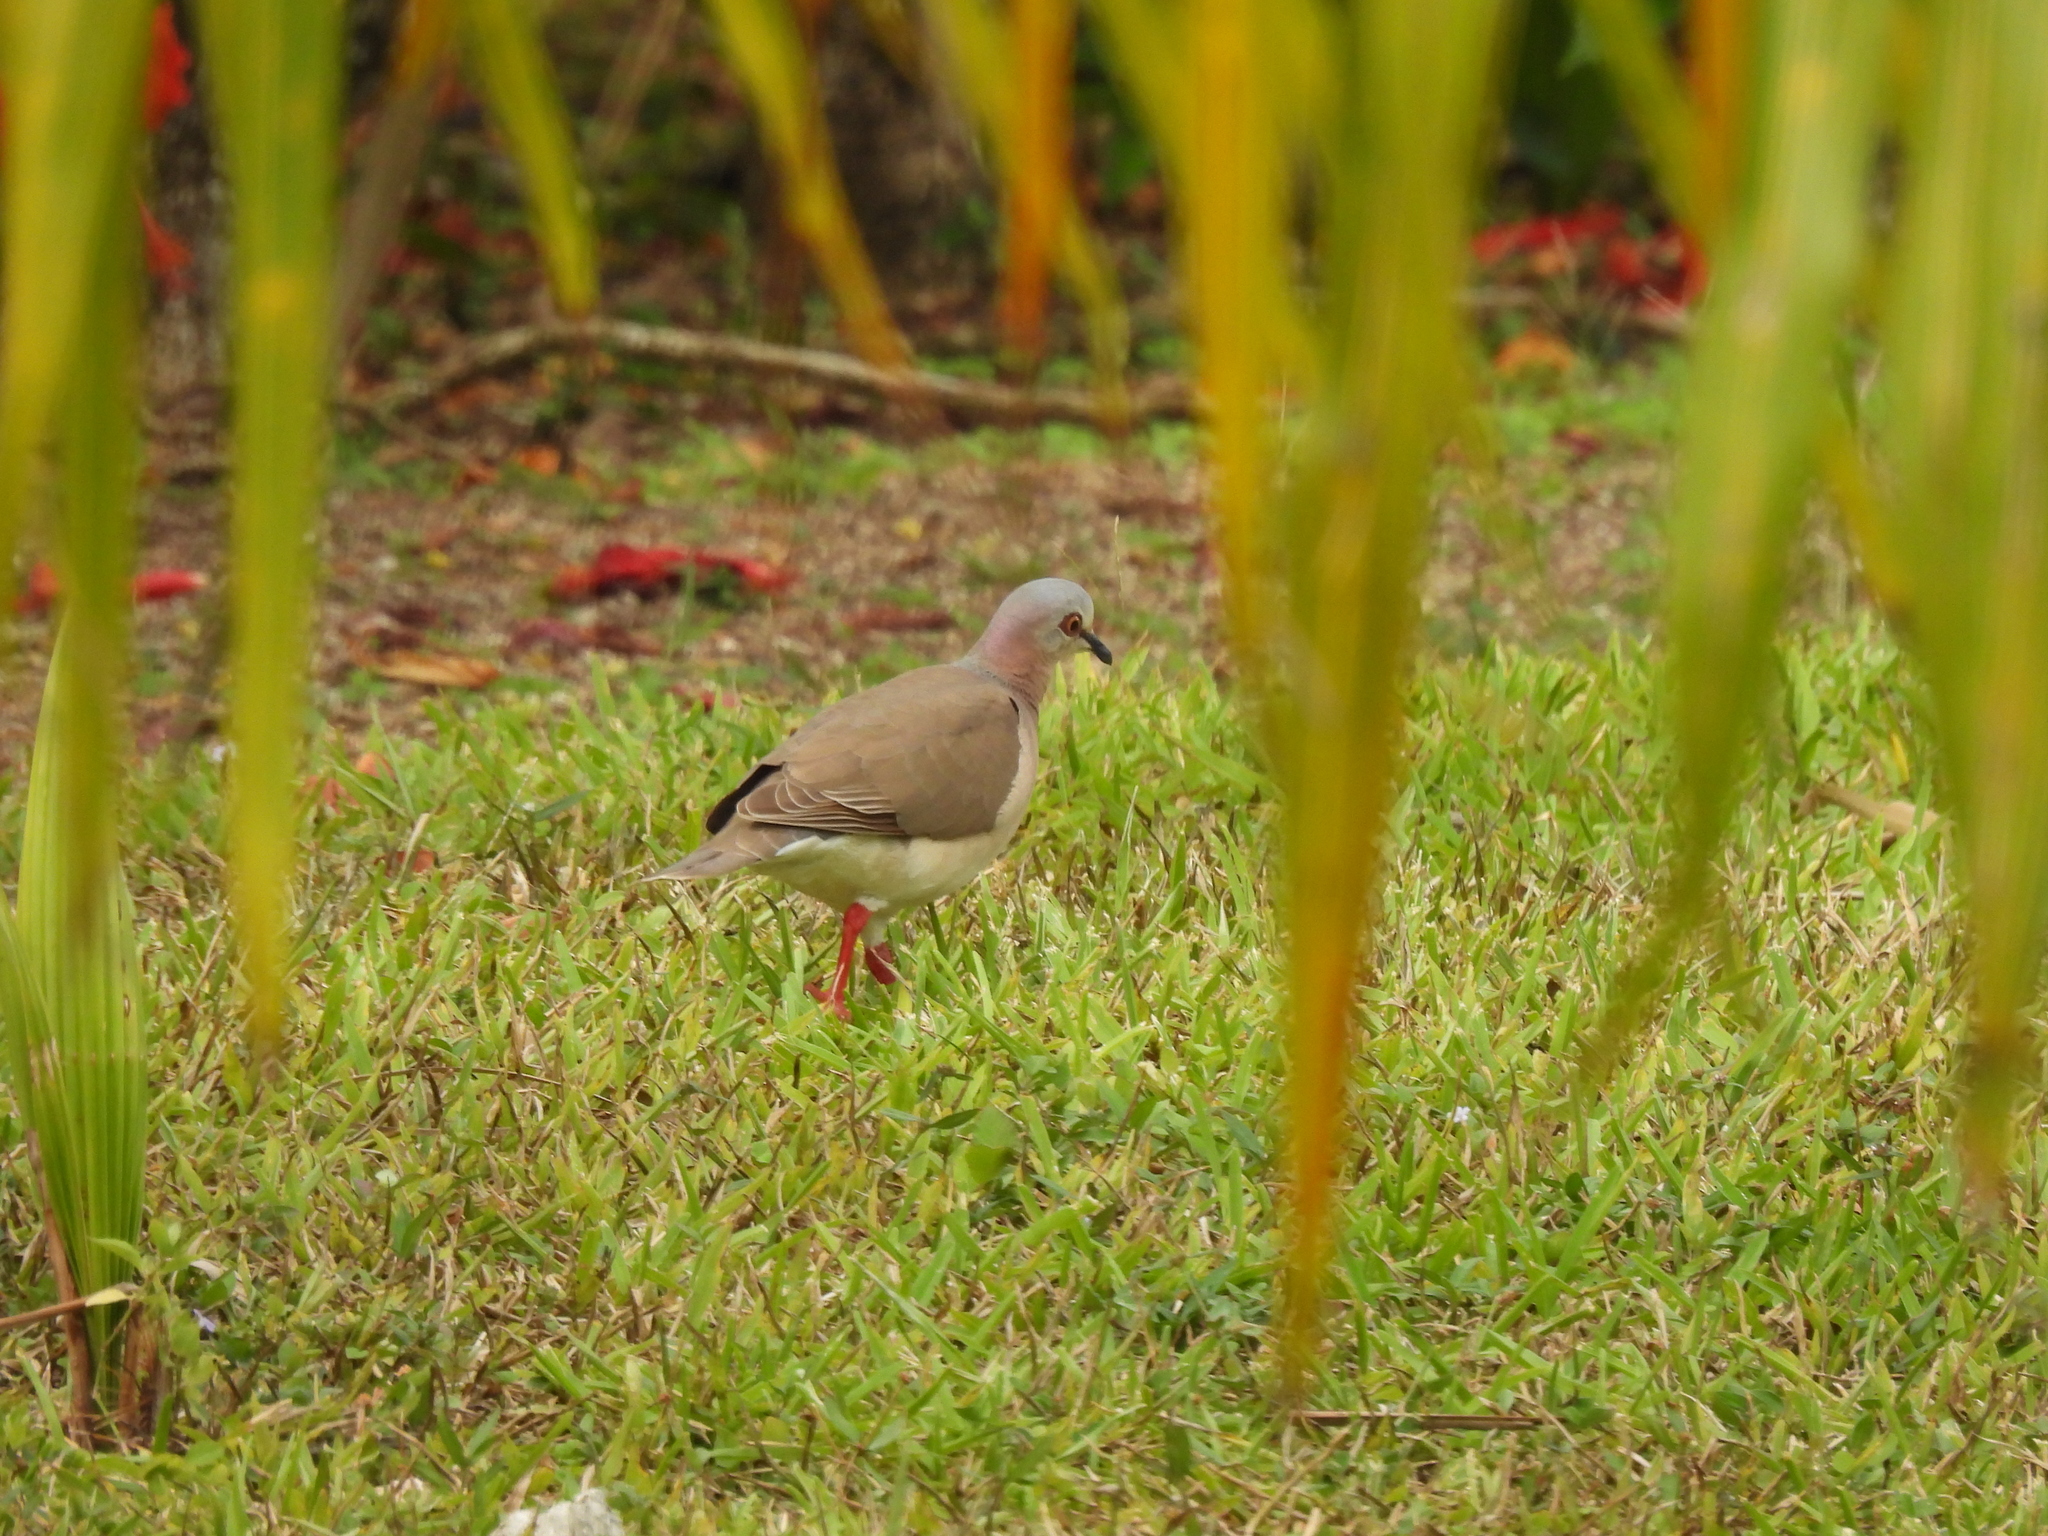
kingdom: Animalia
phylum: Chordata
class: Aves
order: Columbiformes
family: Columbidae
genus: Leptotila
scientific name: Leptotila jamaicensis
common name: Caribbean dove
